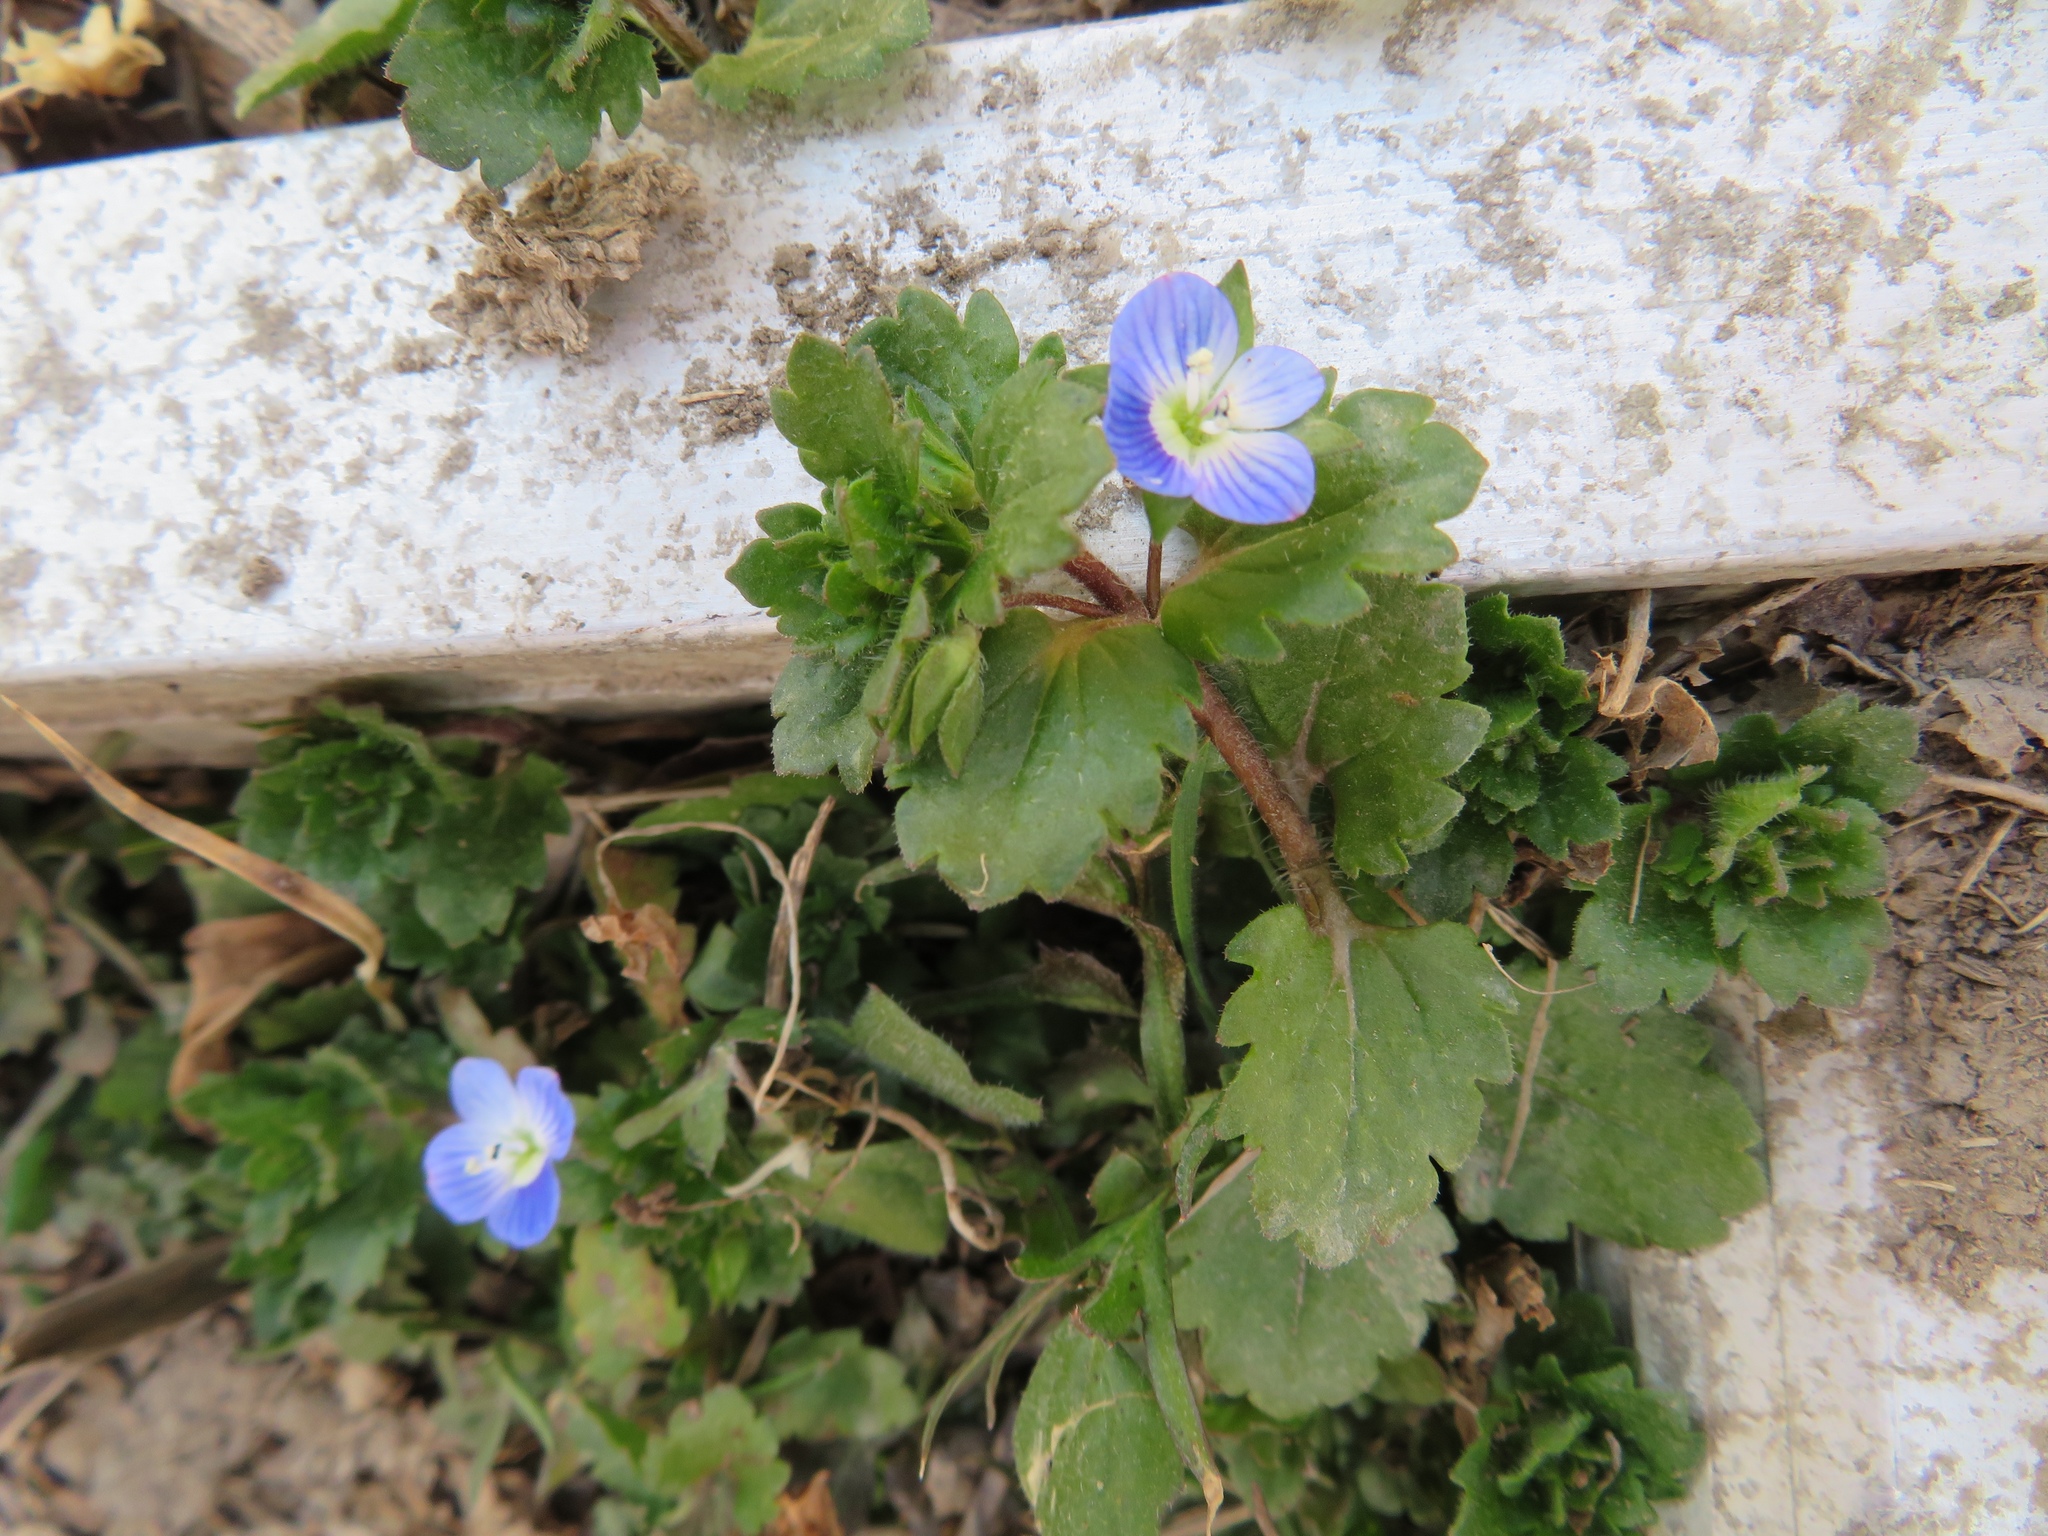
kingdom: Plantae
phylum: Tracheophyta
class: Magnoliopsida
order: Lamiales
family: Plantaginaceae
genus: Veronica
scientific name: Veronica persica
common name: Common field-speedwell
